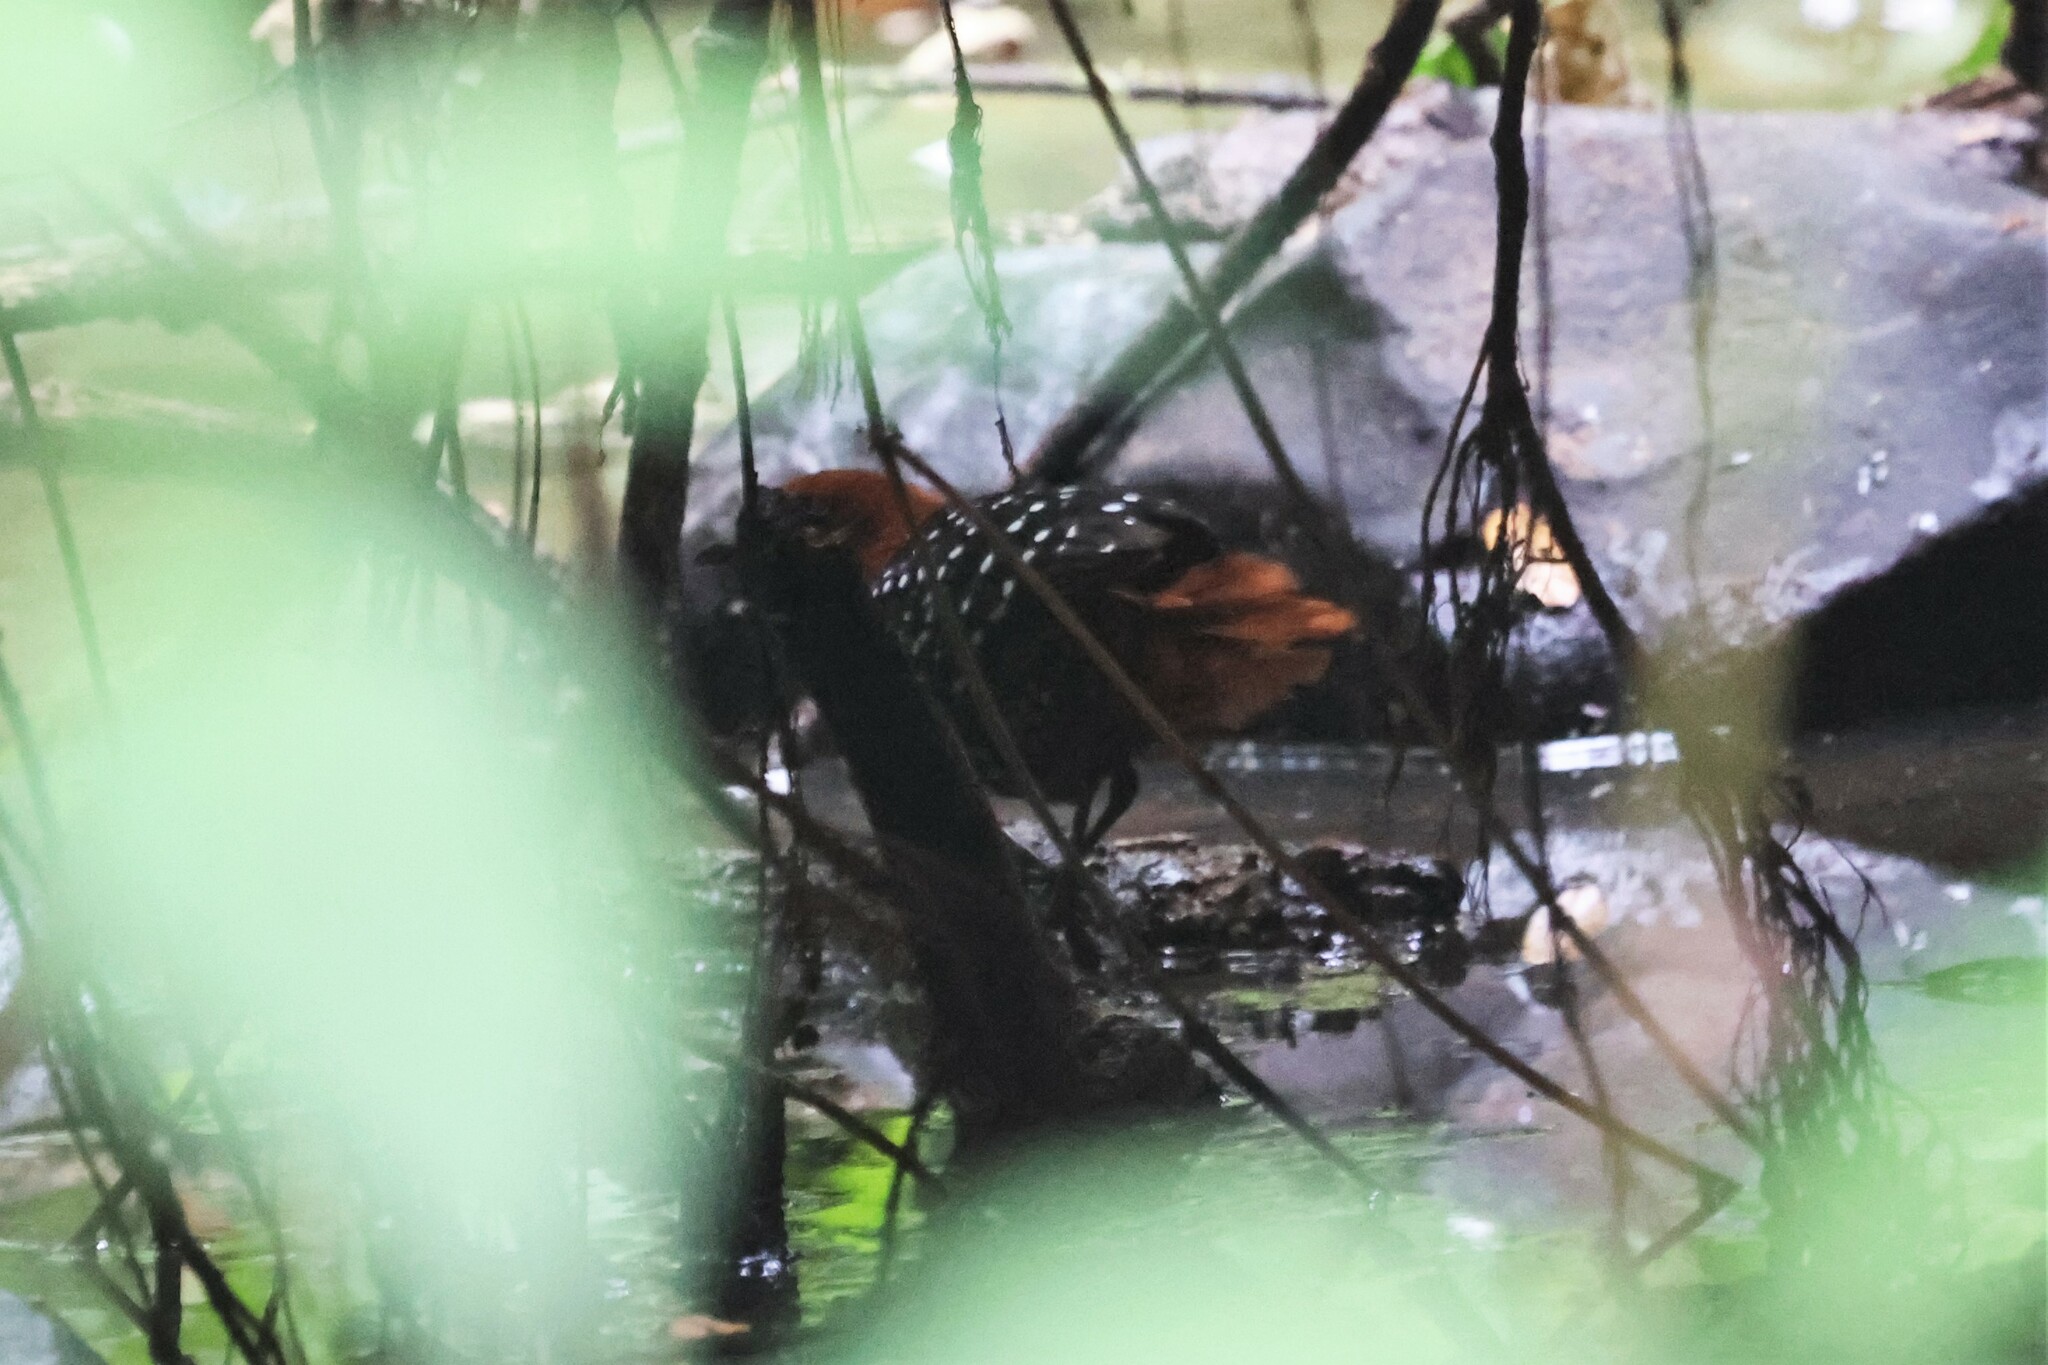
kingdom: Animalia
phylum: Chordata
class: Aves
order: Gruiformes
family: Rallidae
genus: Sarothrura
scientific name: Sarothrura pulchra
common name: White-spotted flufftail
